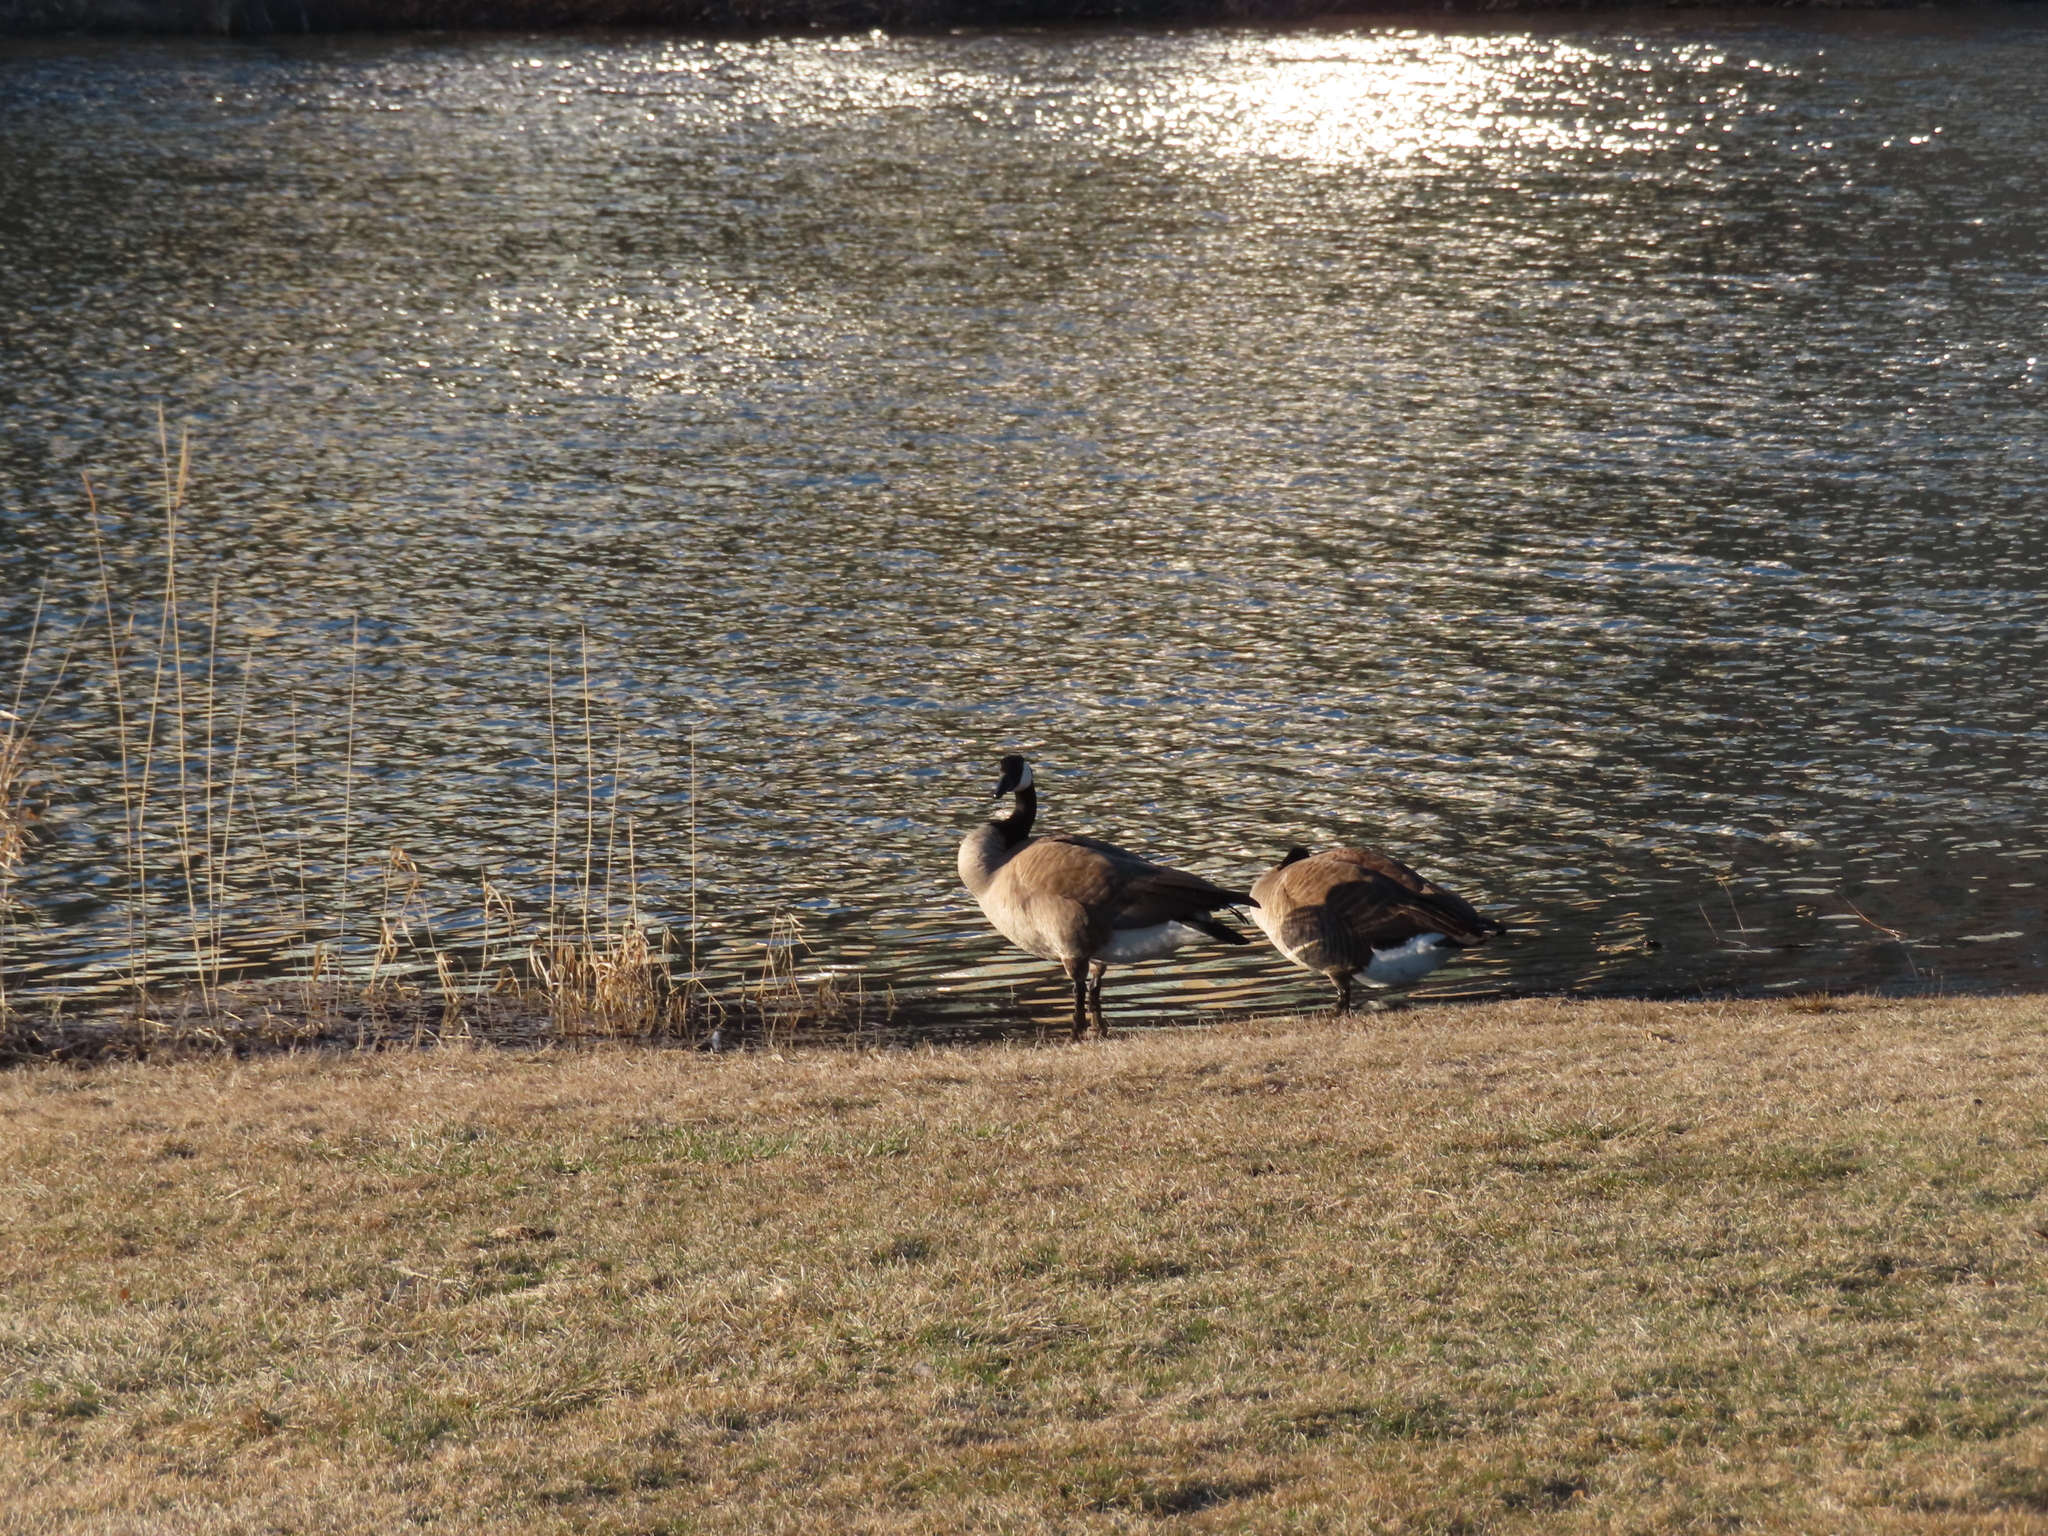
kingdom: Animalia
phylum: Chordata
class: Aves
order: Anseriformes
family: Anatidae
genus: Branta
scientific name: Branta canadensis
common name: Canada goose
